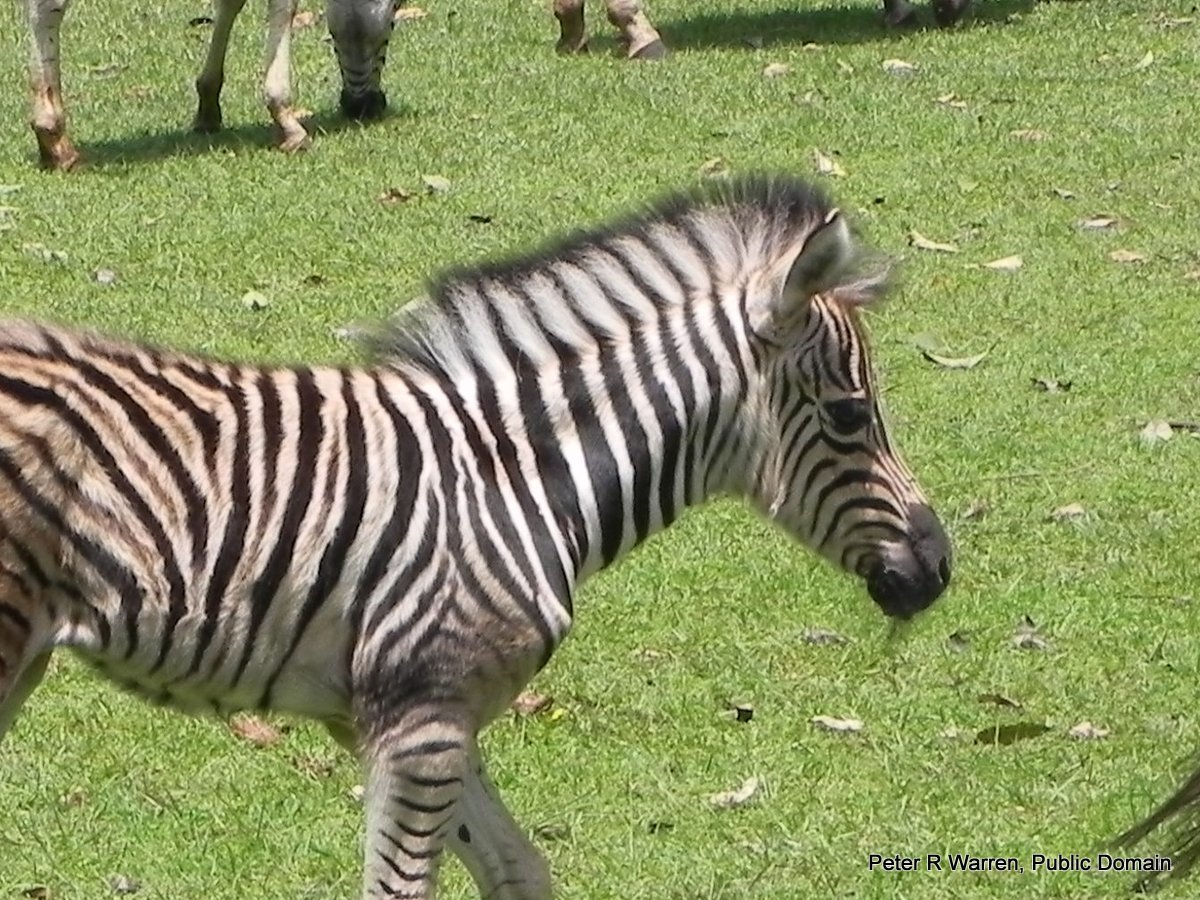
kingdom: Animalia
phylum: Chordata
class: Mammalia
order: Perissodactyla
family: Equidae
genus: Equus
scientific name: Equus quagga
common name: Plains zebra
